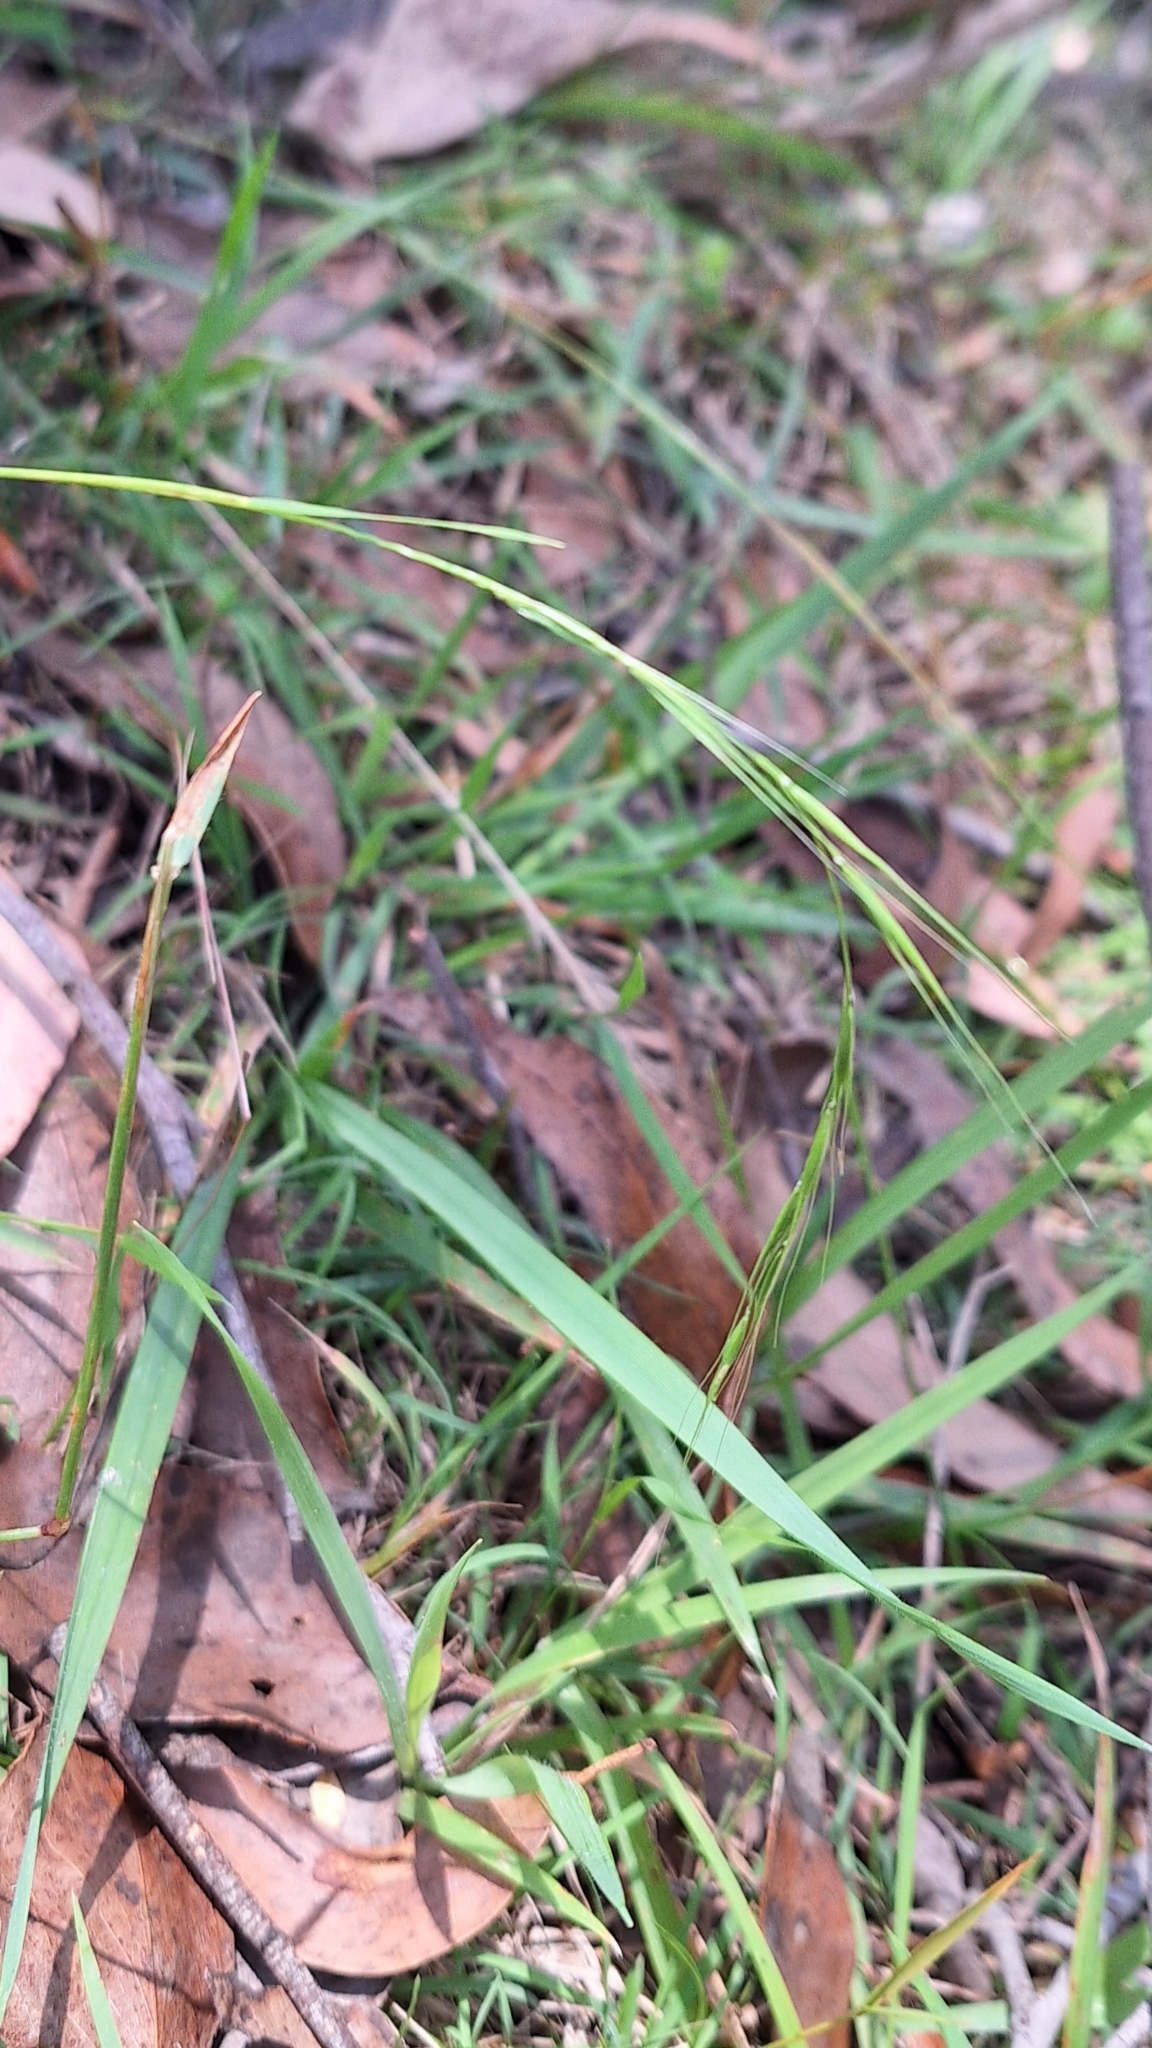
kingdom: Plantae
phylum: Tracheophyta
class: Liliopsida
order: Poales
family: Poaceae
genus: Microlaena
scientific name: Microlaena stipoides
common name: Meadow ricegrass
